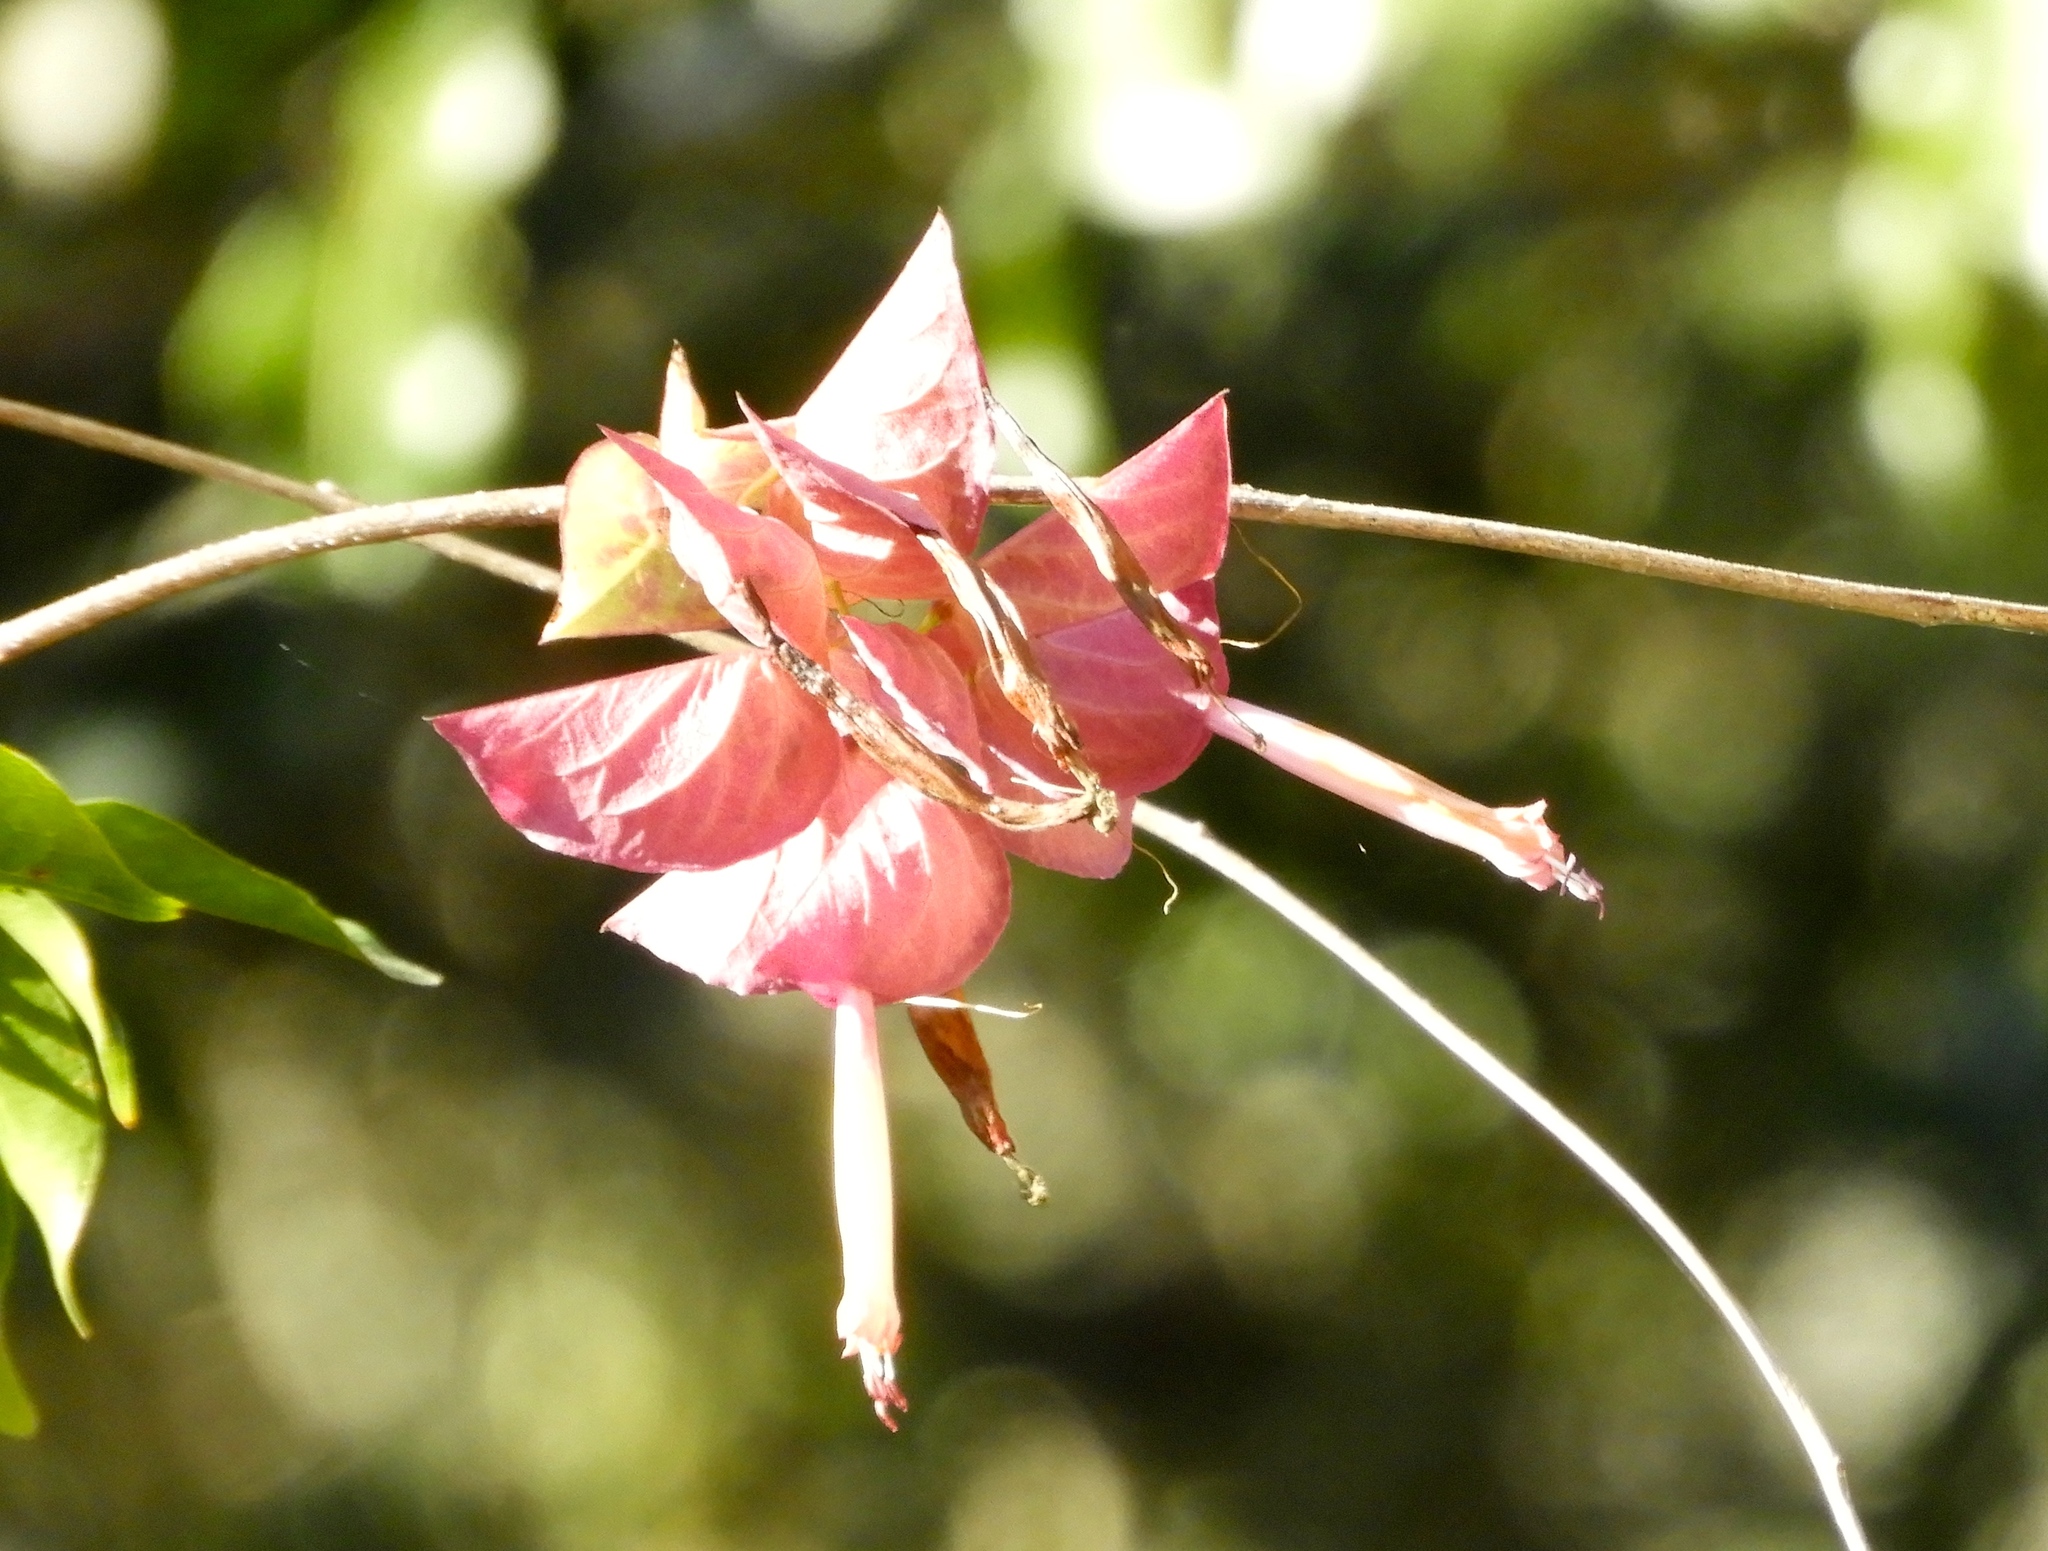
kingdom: Plantae
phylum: Tracheophyta
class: Magnoliopsida
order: Solanales
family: Convolvulaceae
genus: Ipomoea
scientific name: Ipomoea bracteata
